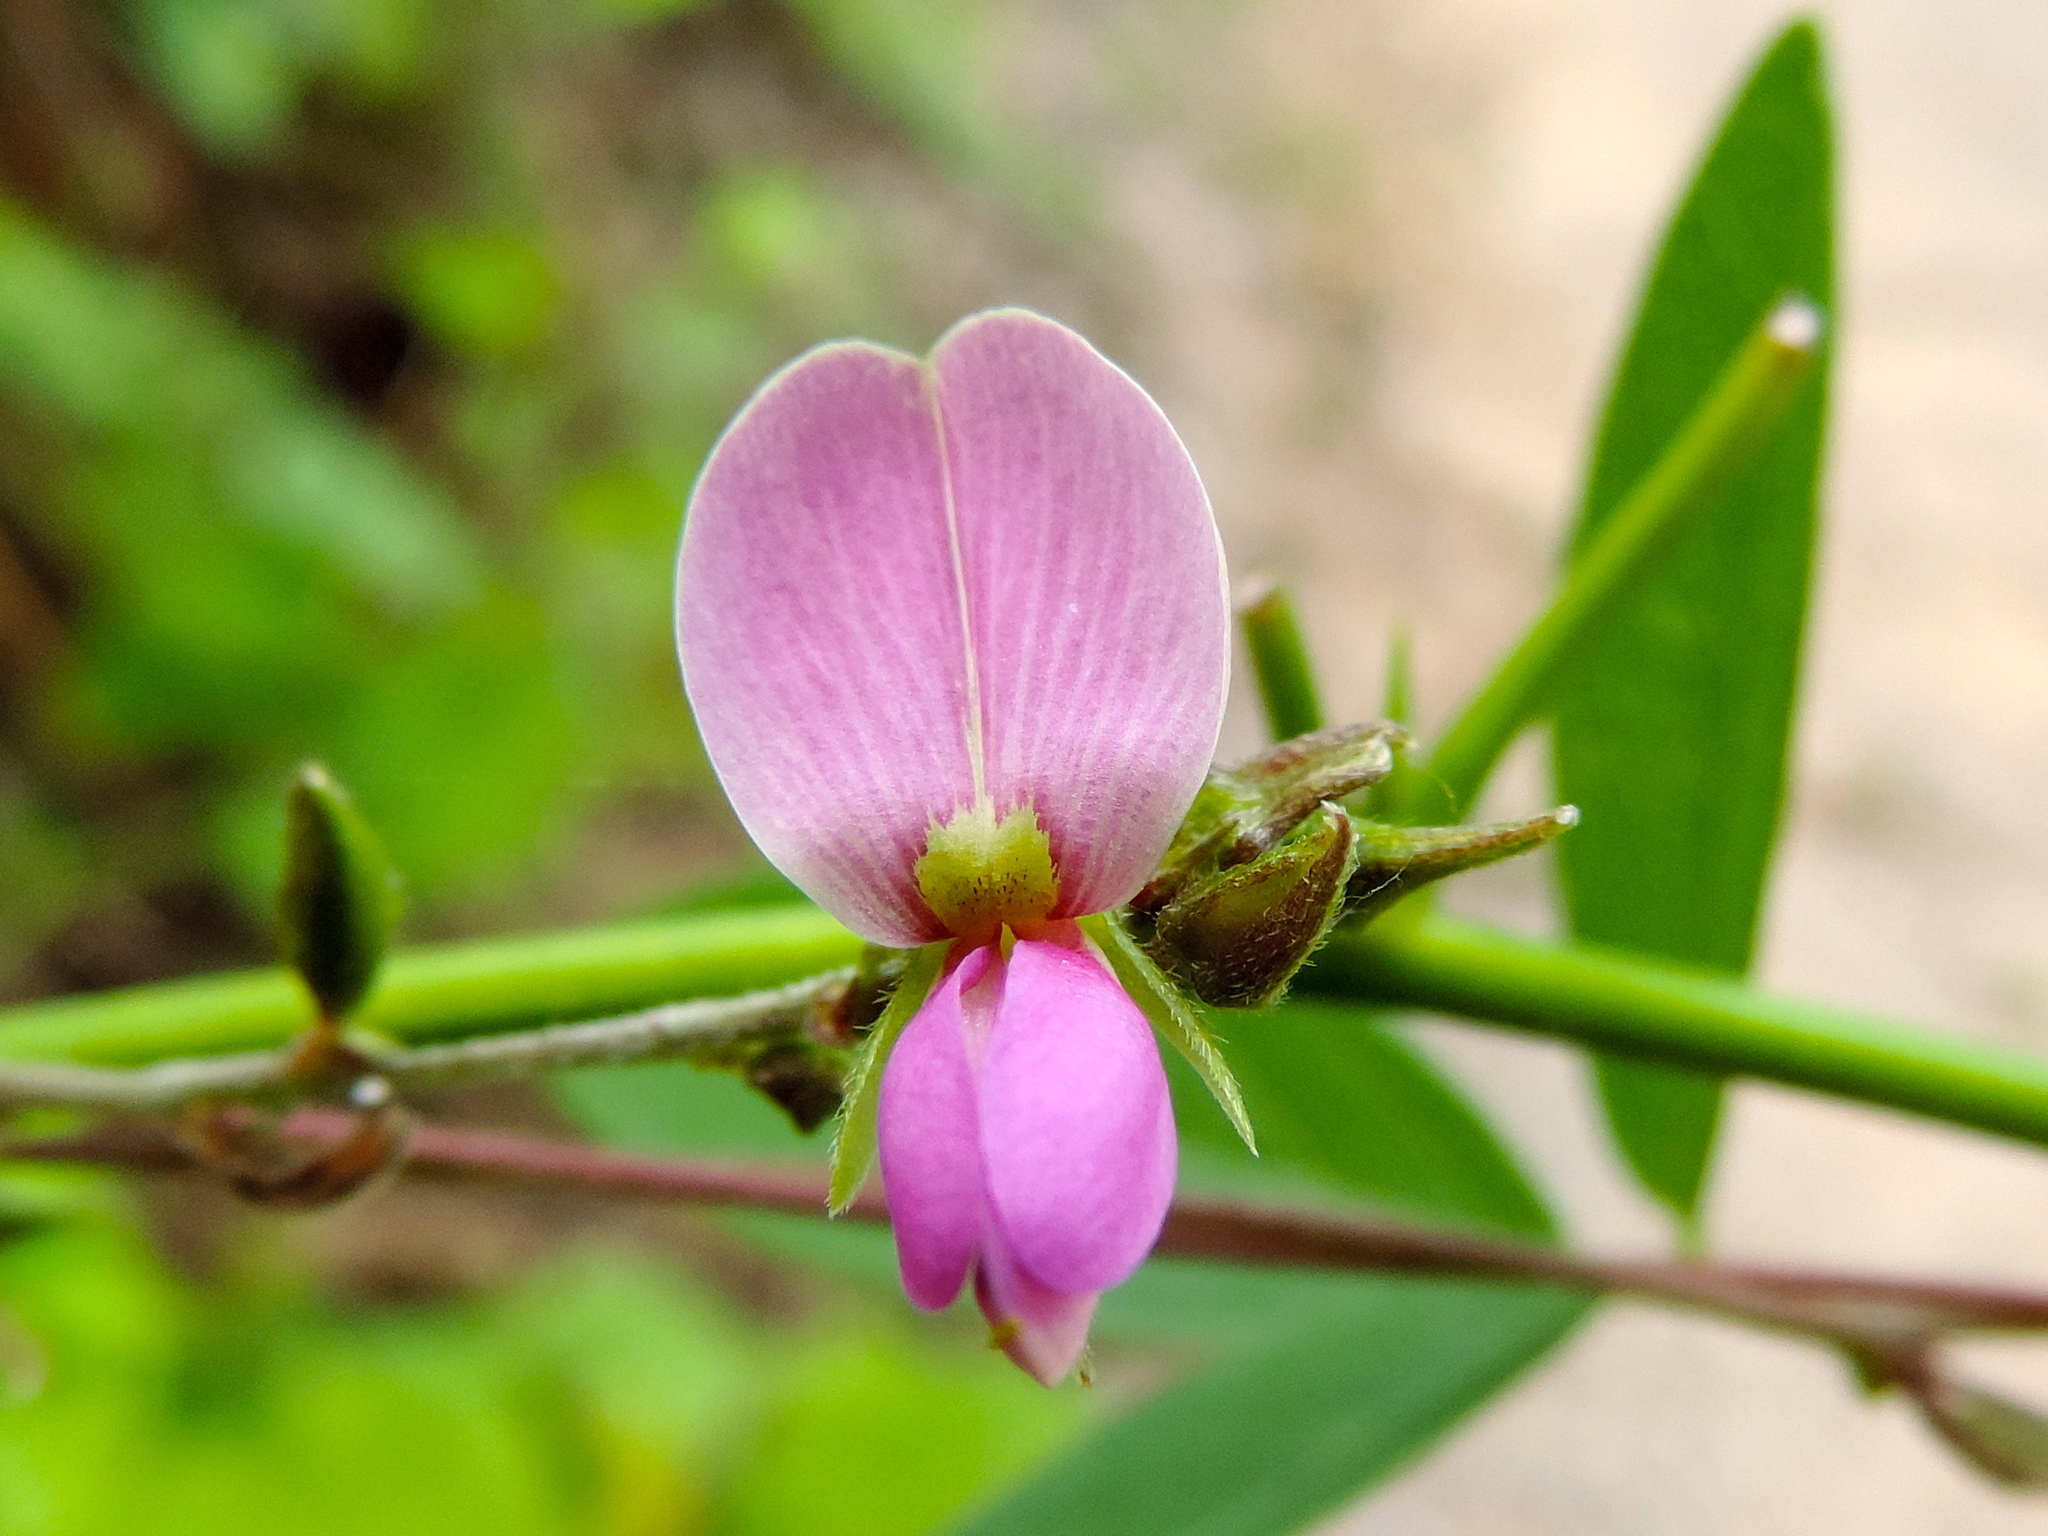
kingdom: Plantae
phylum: Tracheophyta
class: Magnoliopsida
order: Fabales
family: Fabaceae
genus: Galactia
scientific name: Galactia acapulcensis
